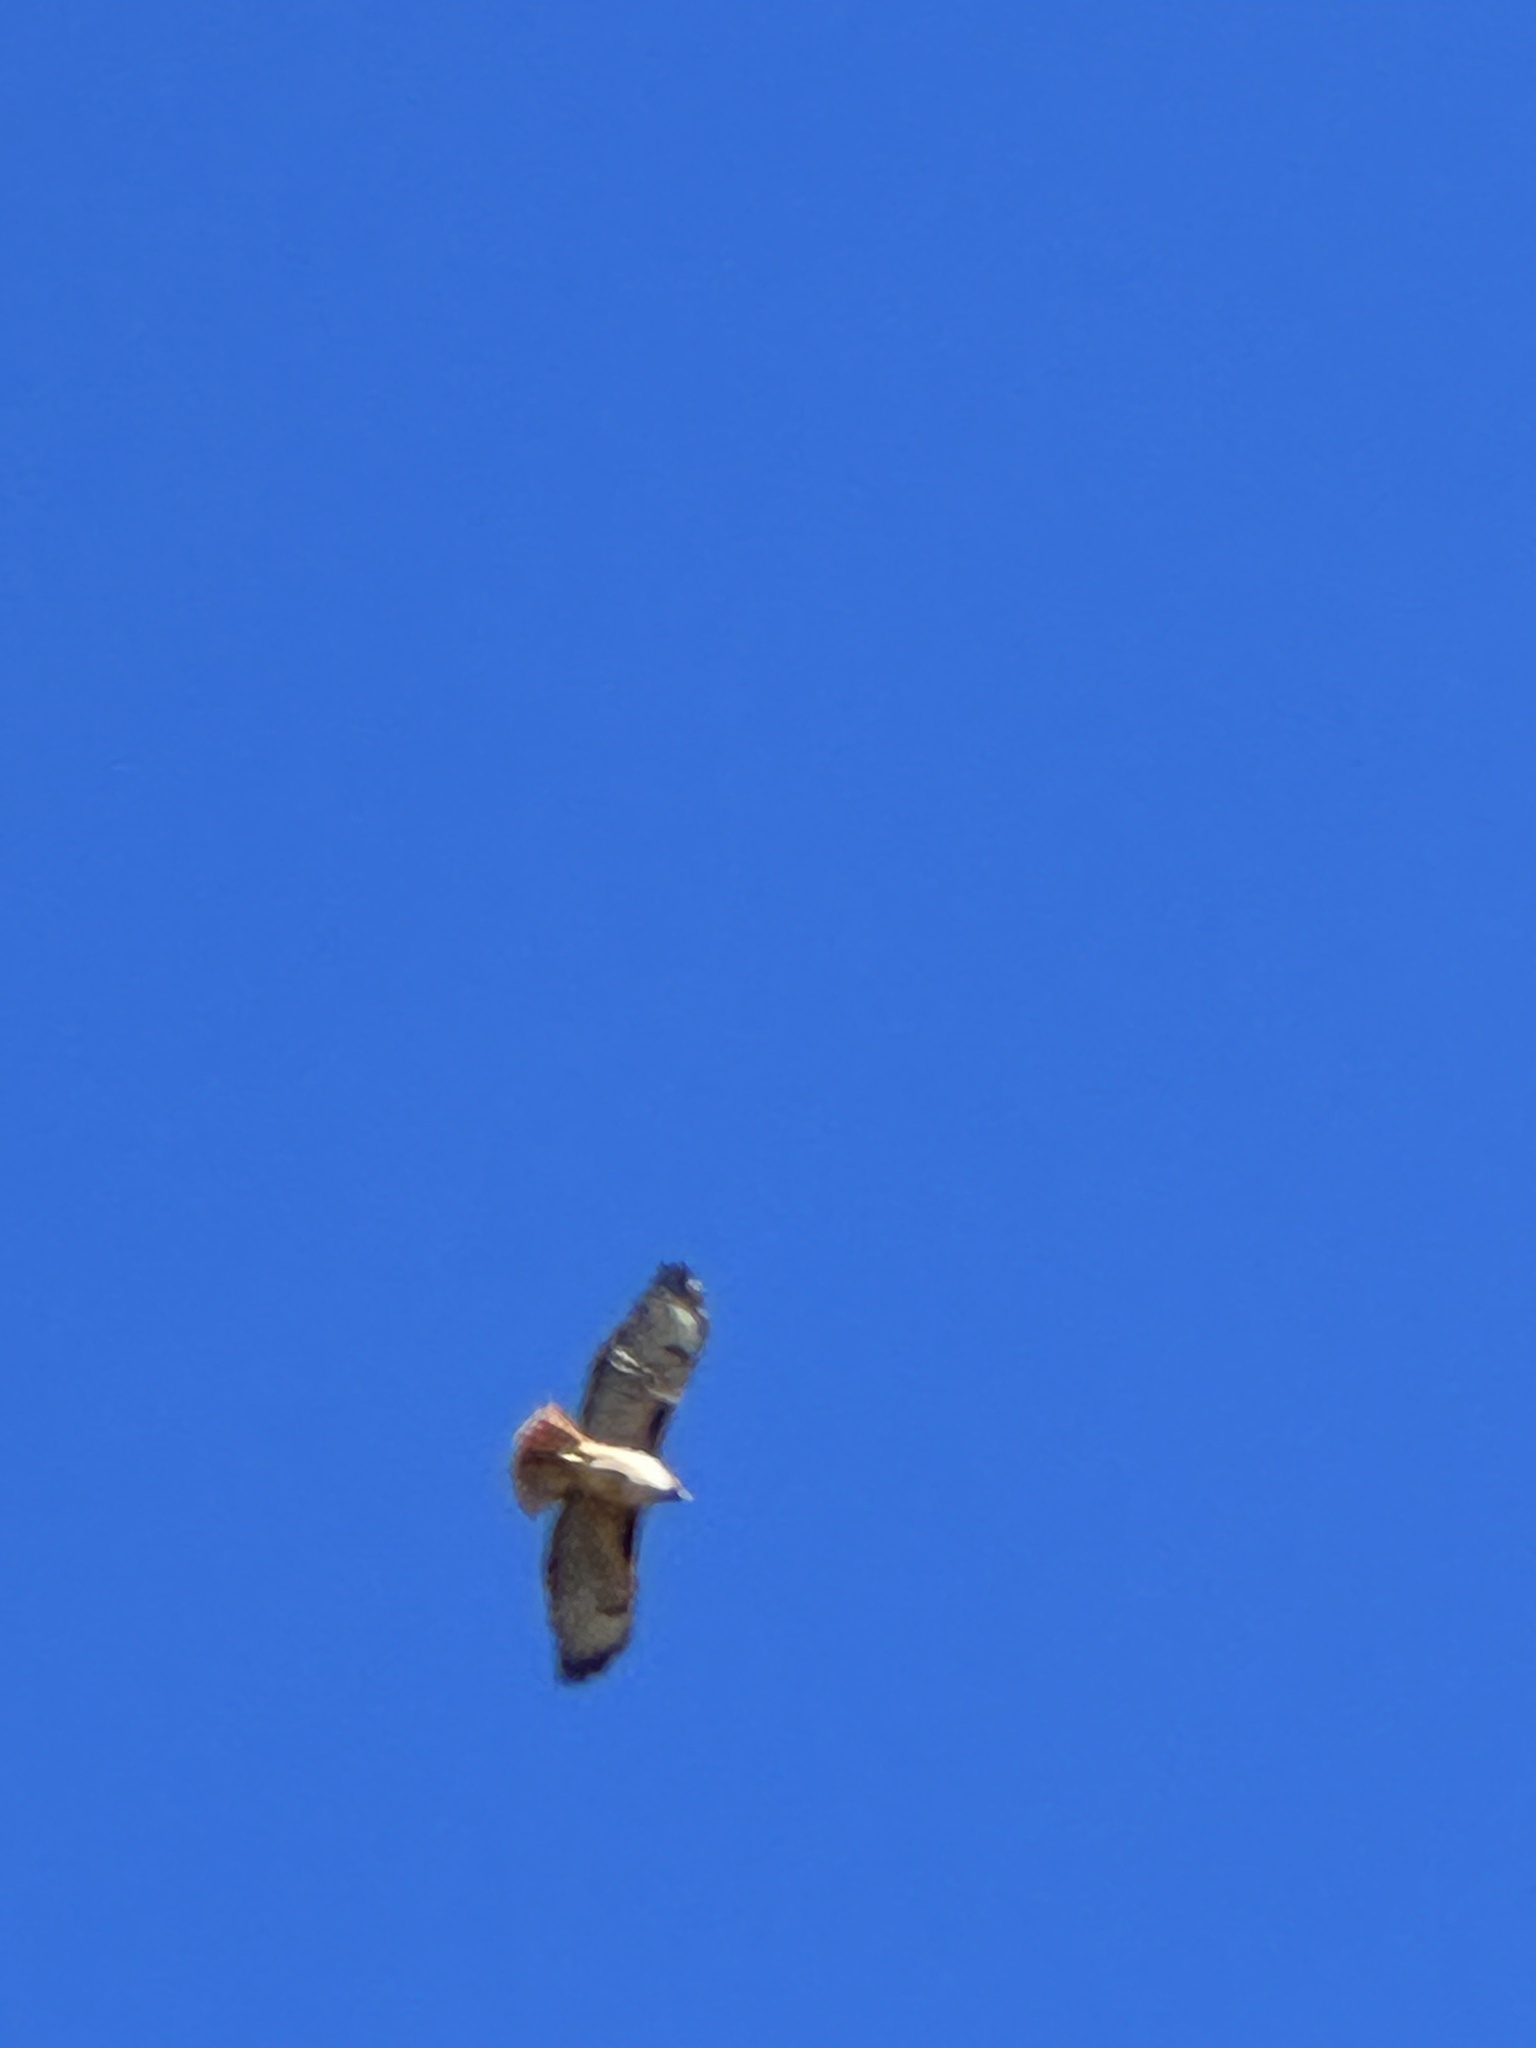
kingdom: Animalia
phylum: Chordata
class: Aves
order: Accipitriformes
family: Accipitridae
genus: Buteo
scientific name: Buteo jamaicensis
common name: Red-tailed hawk
